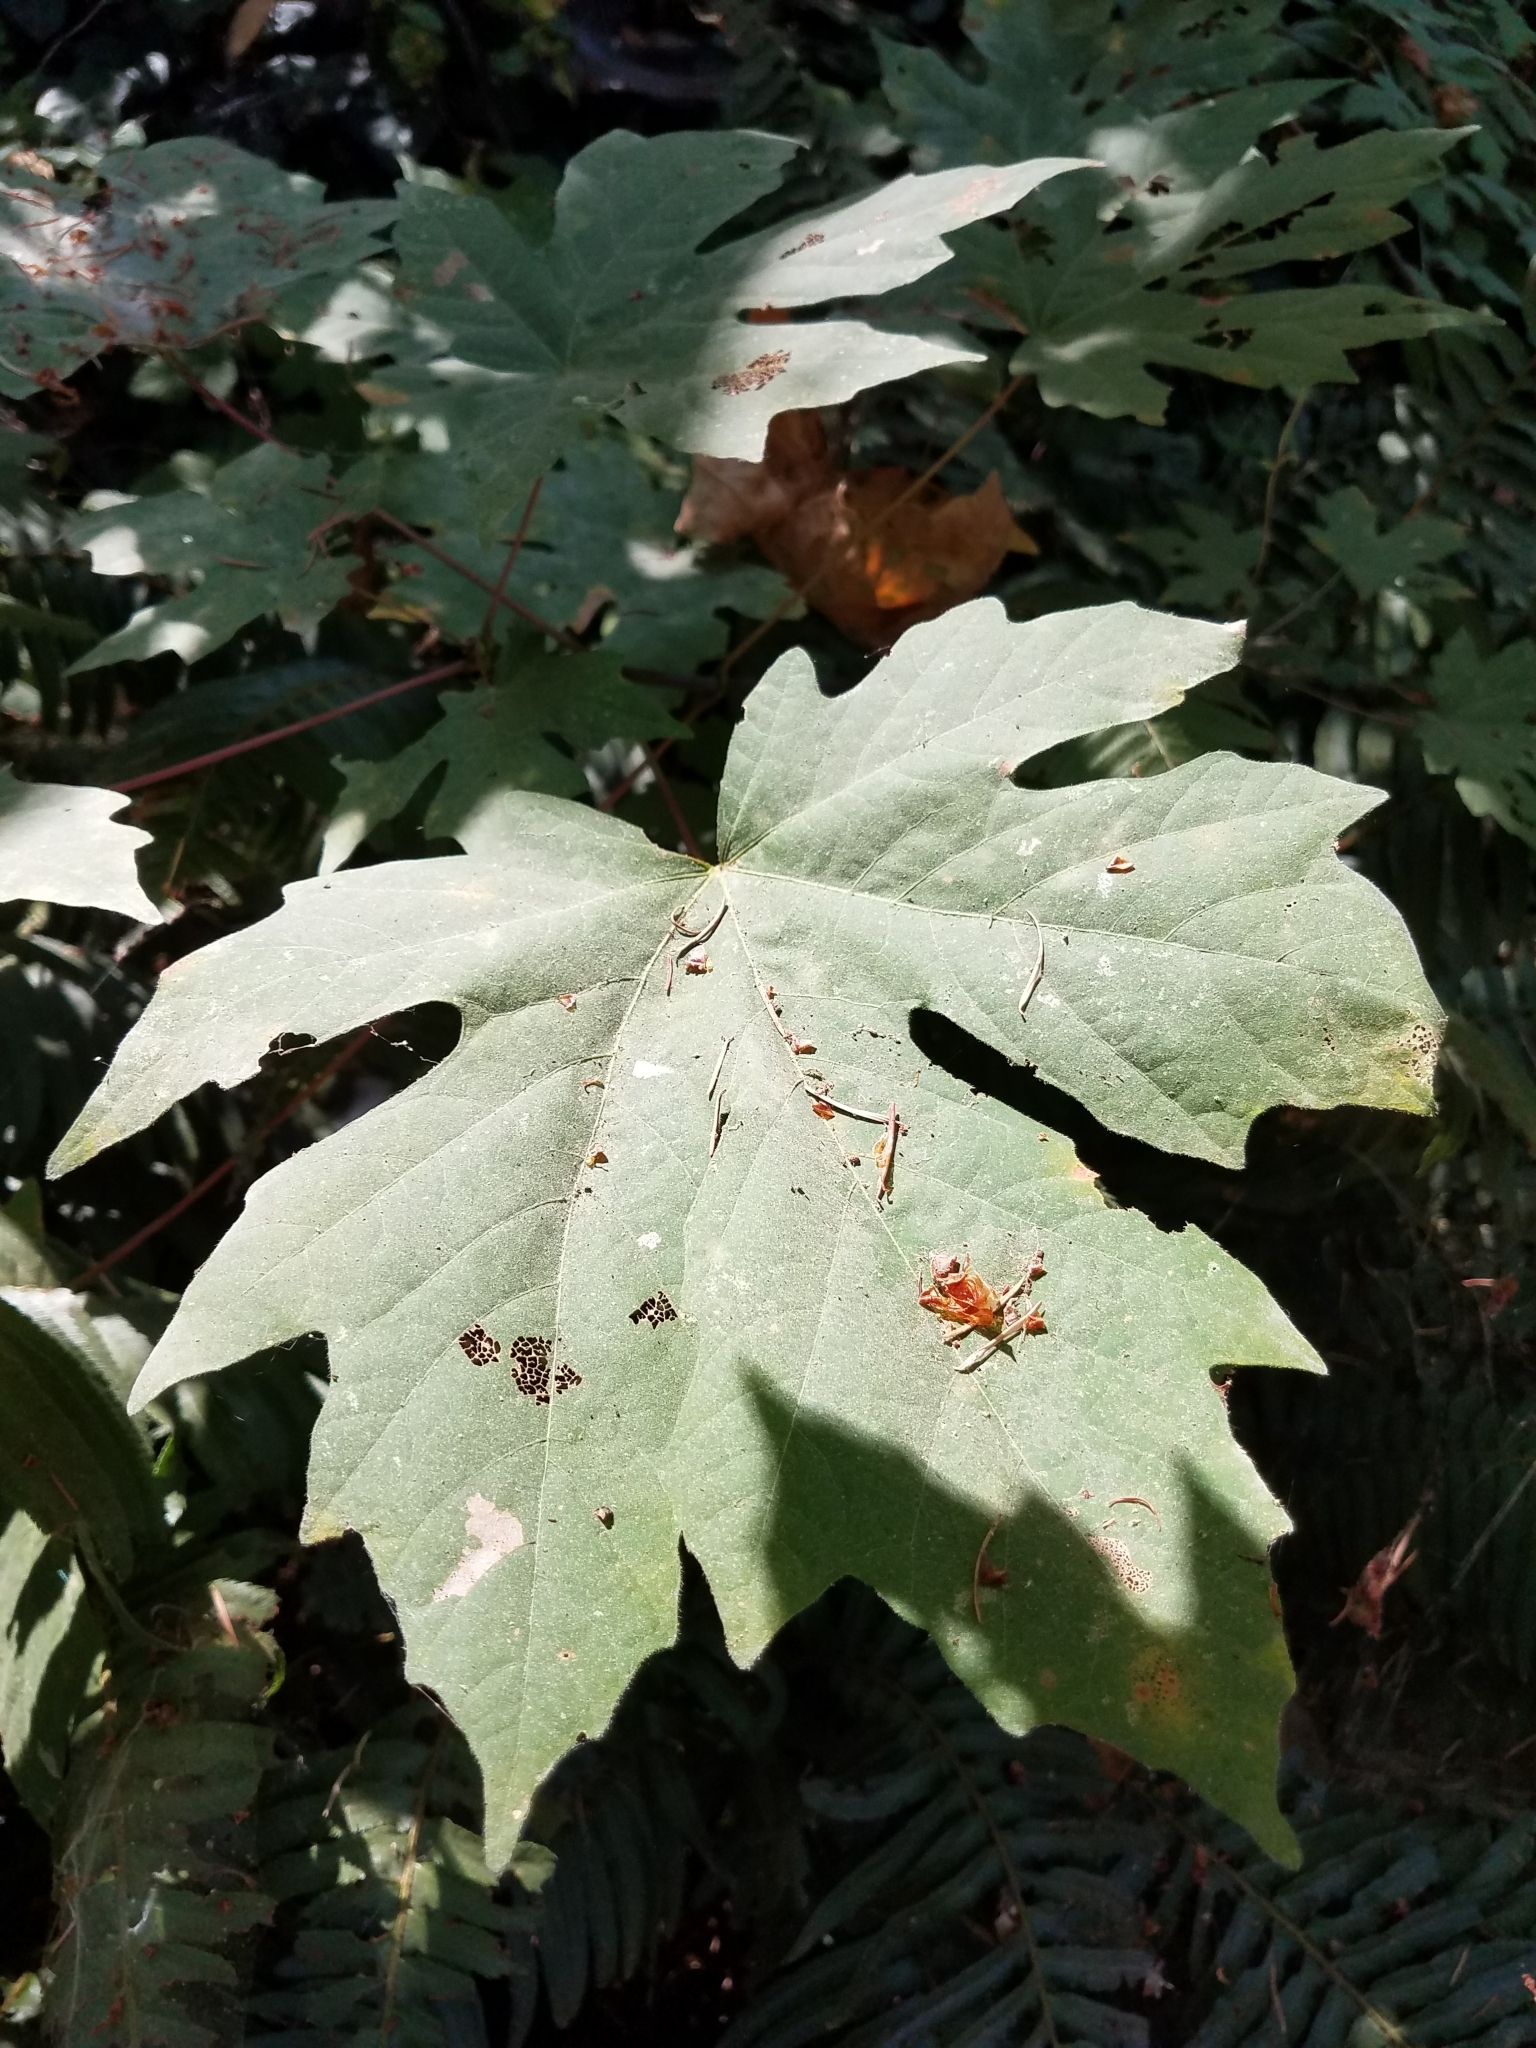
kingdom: Plantae
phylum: Tracheophyta
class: Magnoliopsida
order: Sapindales
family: Sapindaceae
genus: Acer
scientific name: Acer macrophyllum
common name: Oregon maple
